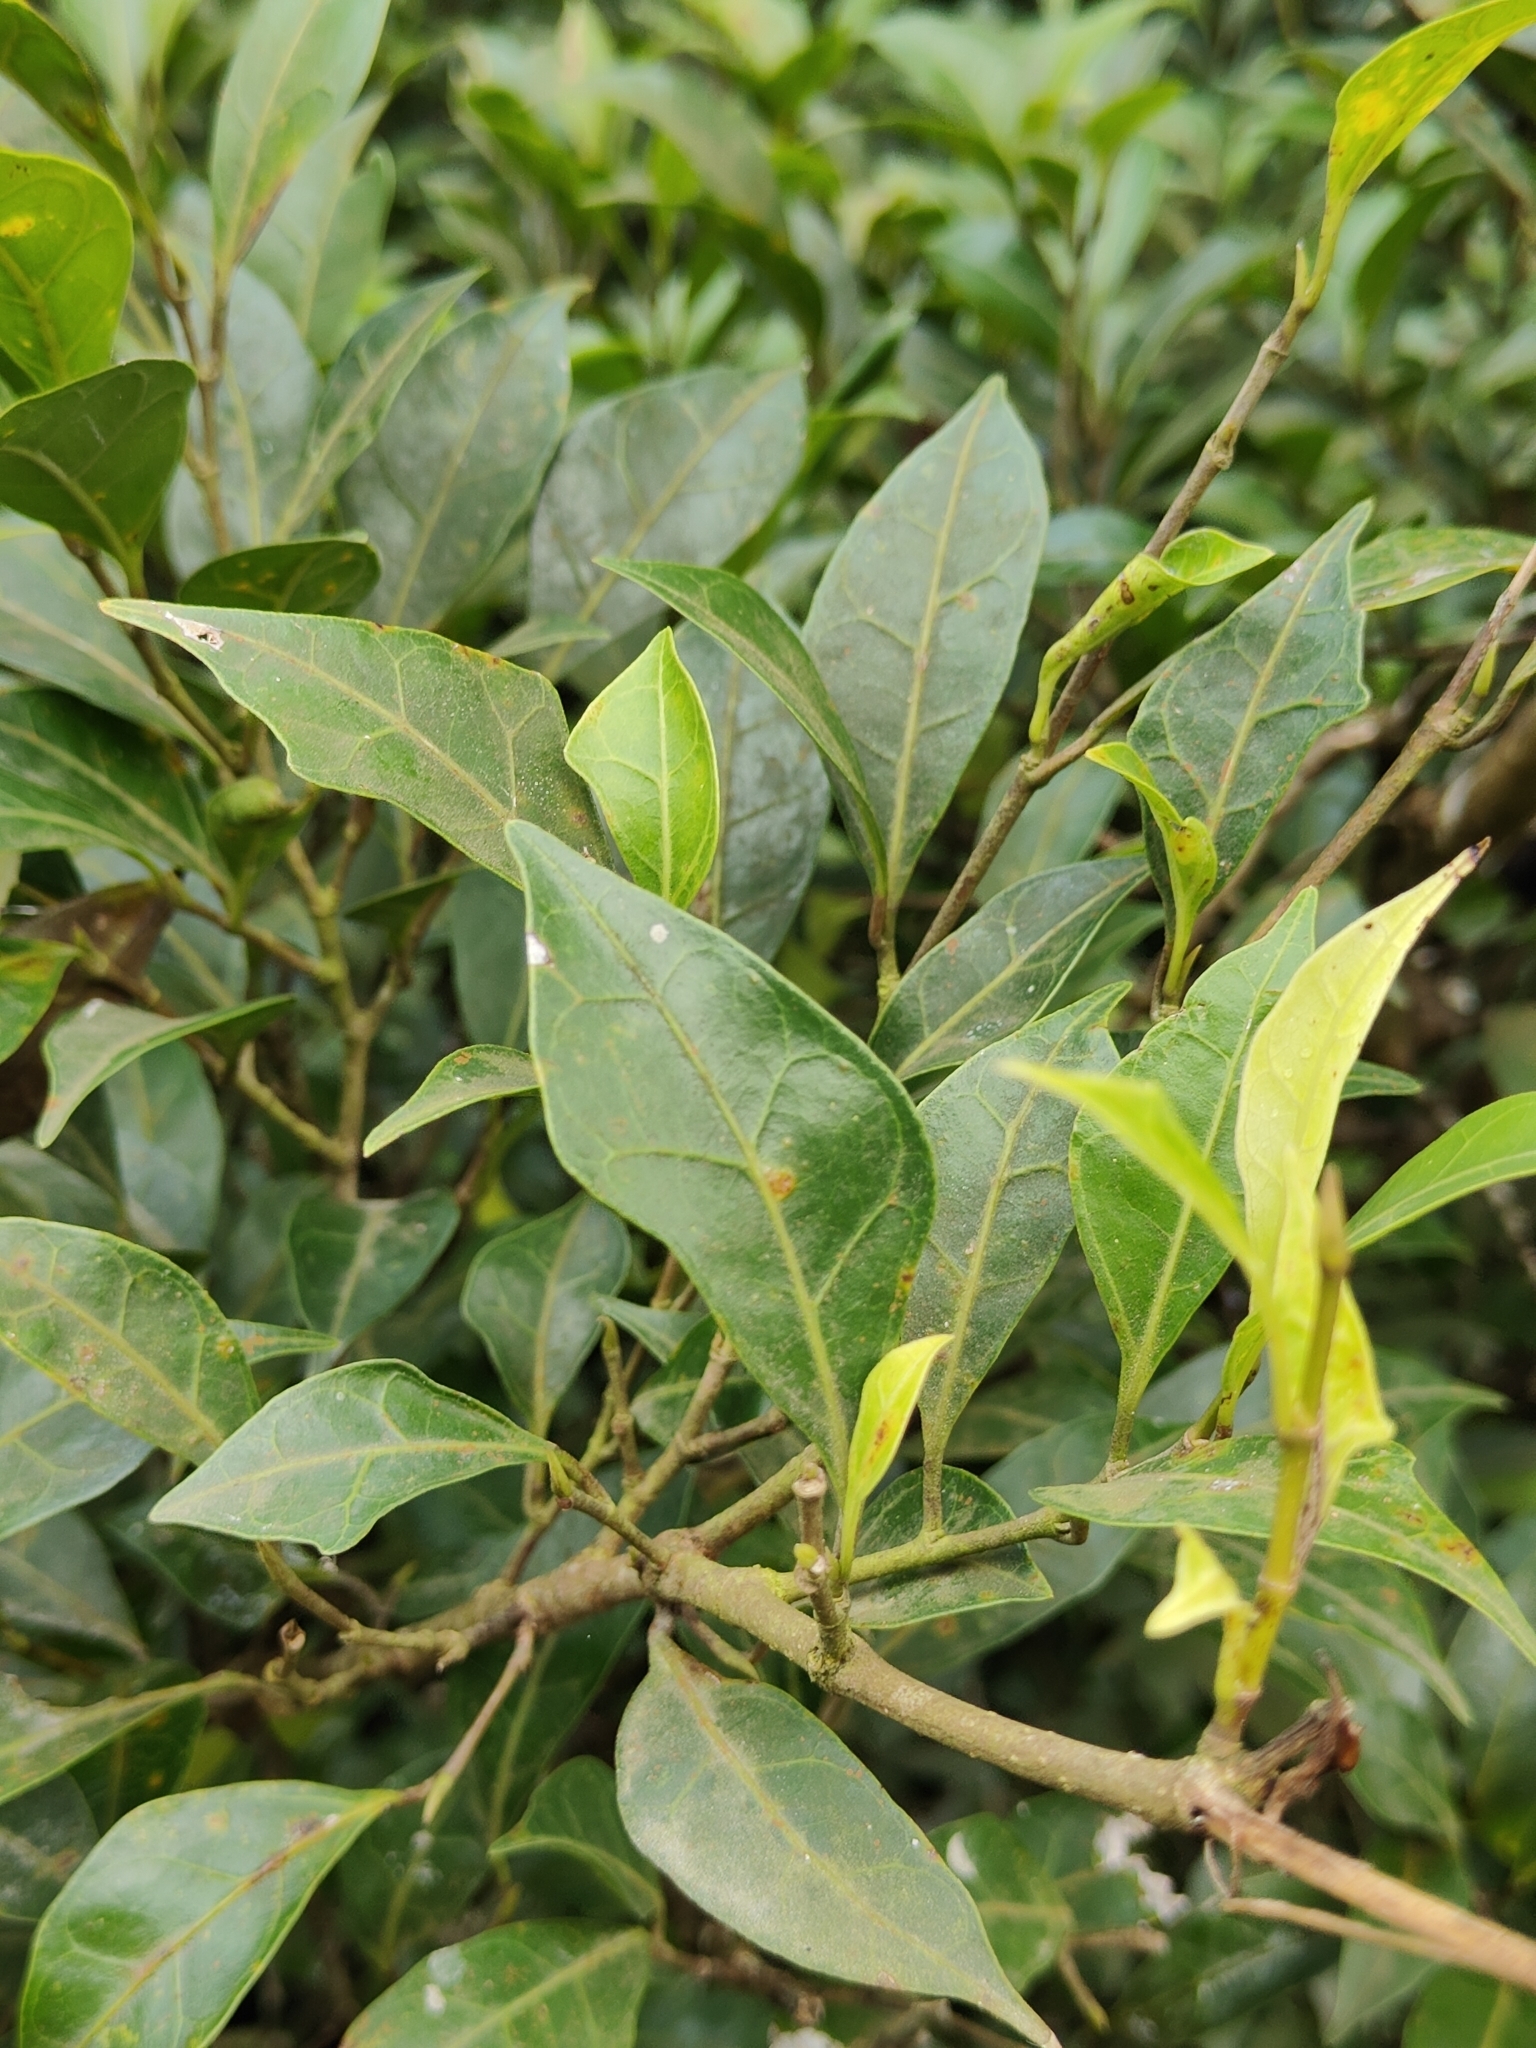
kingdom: Plantae
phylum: Tracheophyta
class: Magnoliopsida
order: Rosales
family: Moraceae
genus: Ficus
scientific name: Ficus tinctoria
